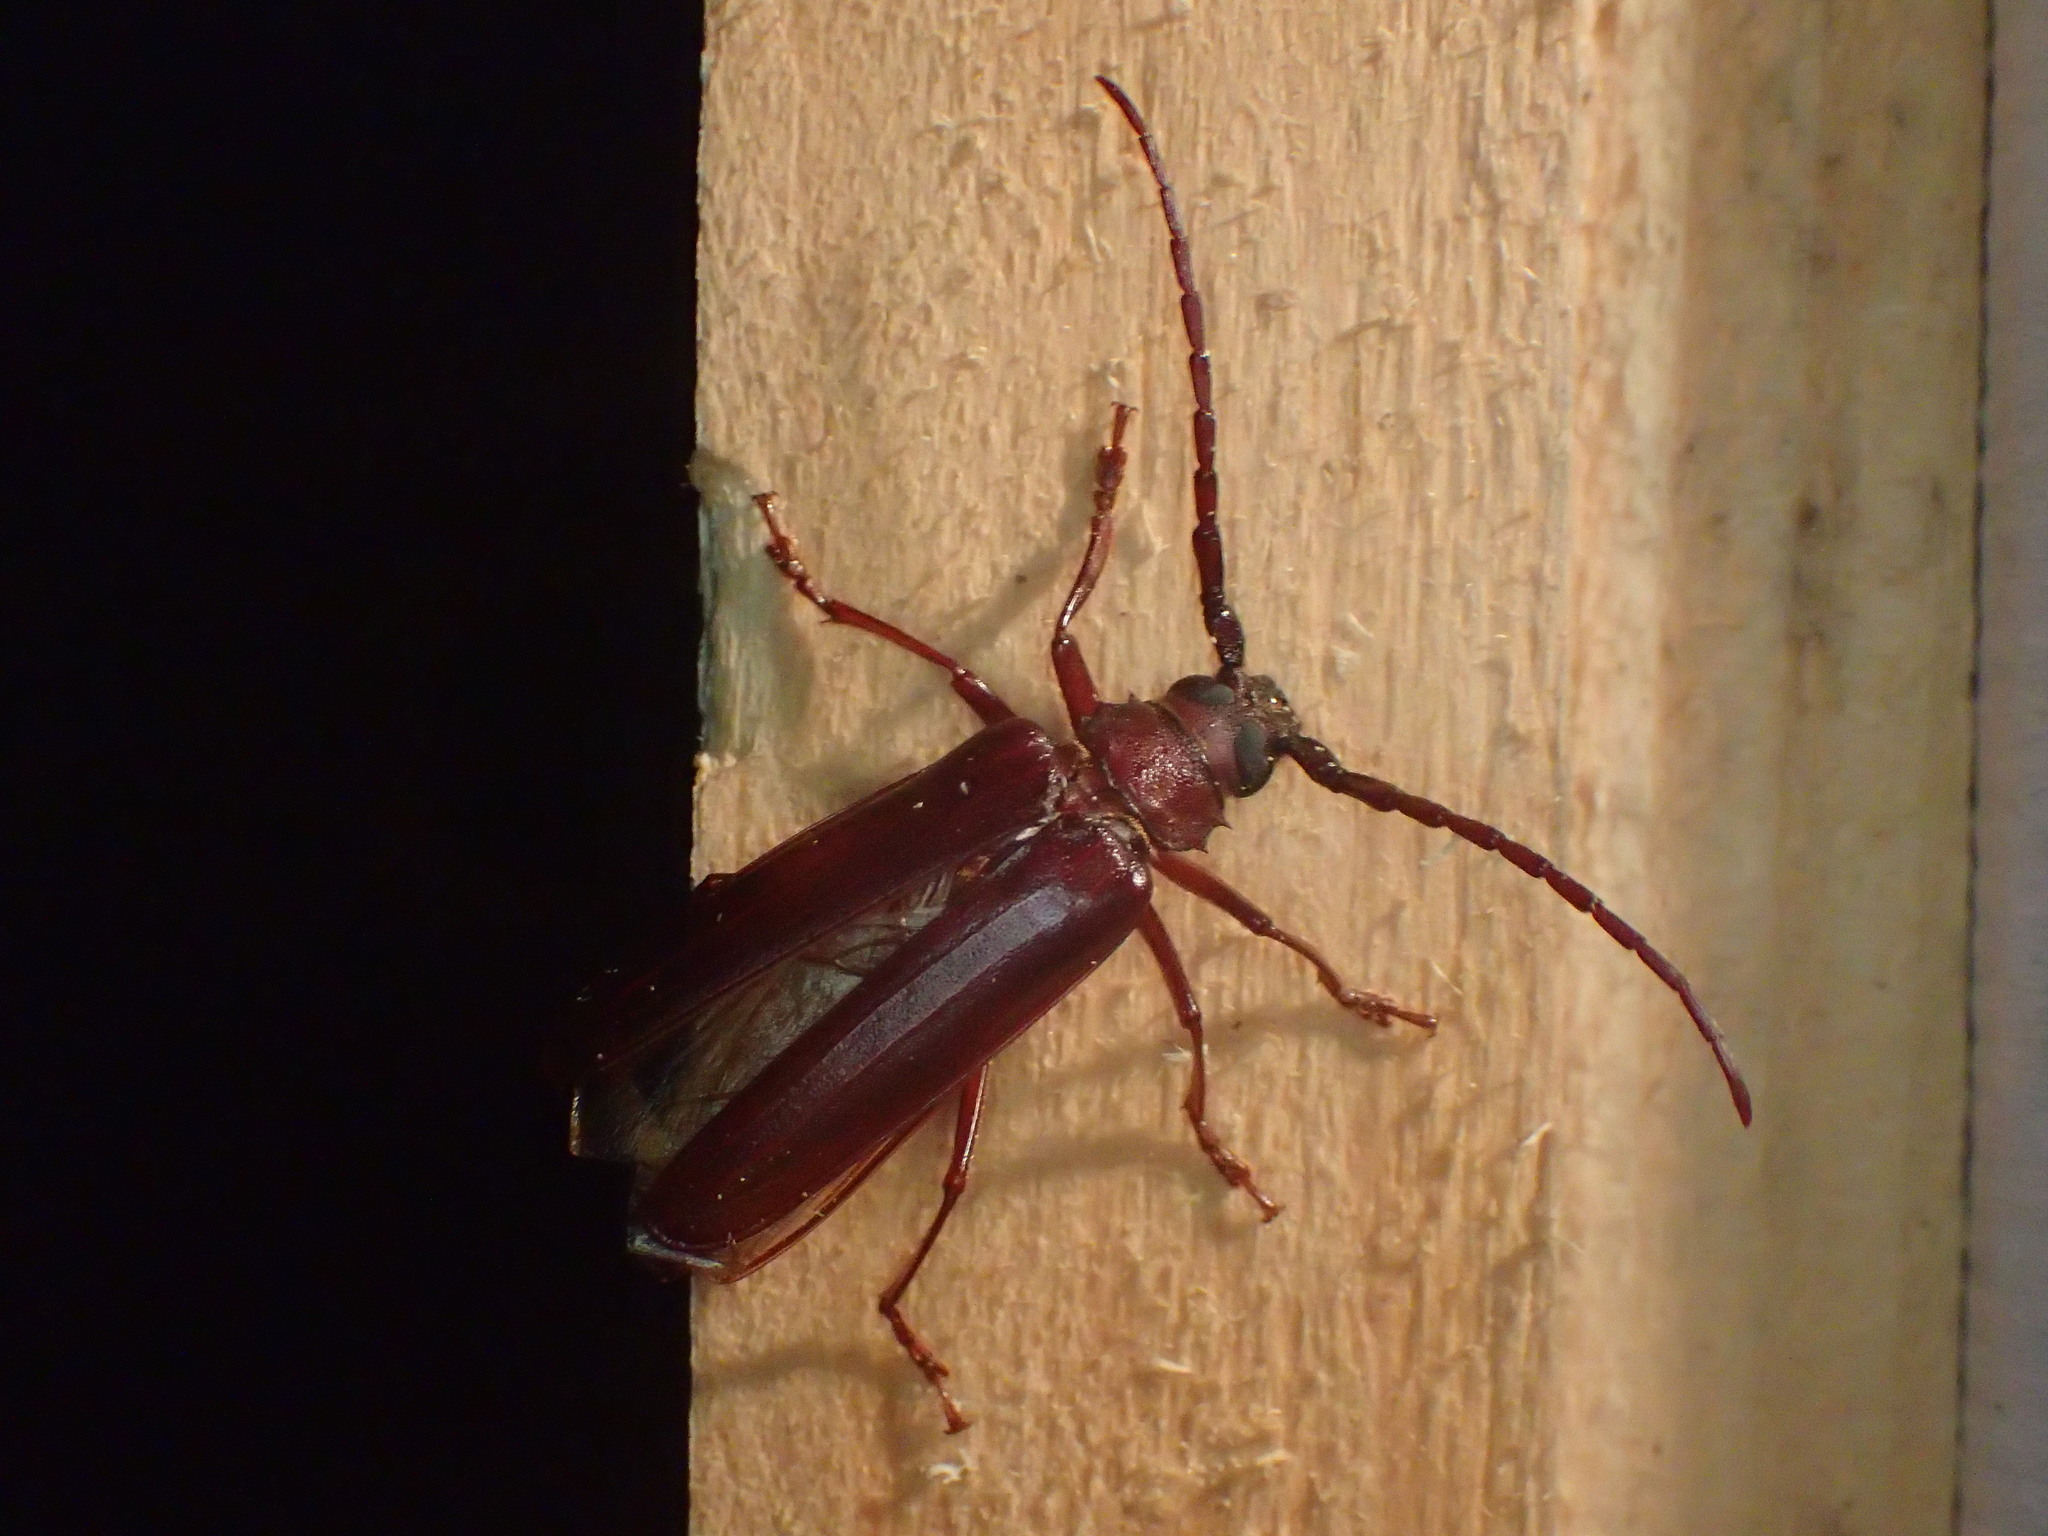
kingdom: Animalia
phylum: Arthropoda
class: Insecta
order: Coleoptera
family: Cerambycidae
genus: Orthosoma
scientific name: Orthosoma brunneum
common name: Brown prionid beetle
